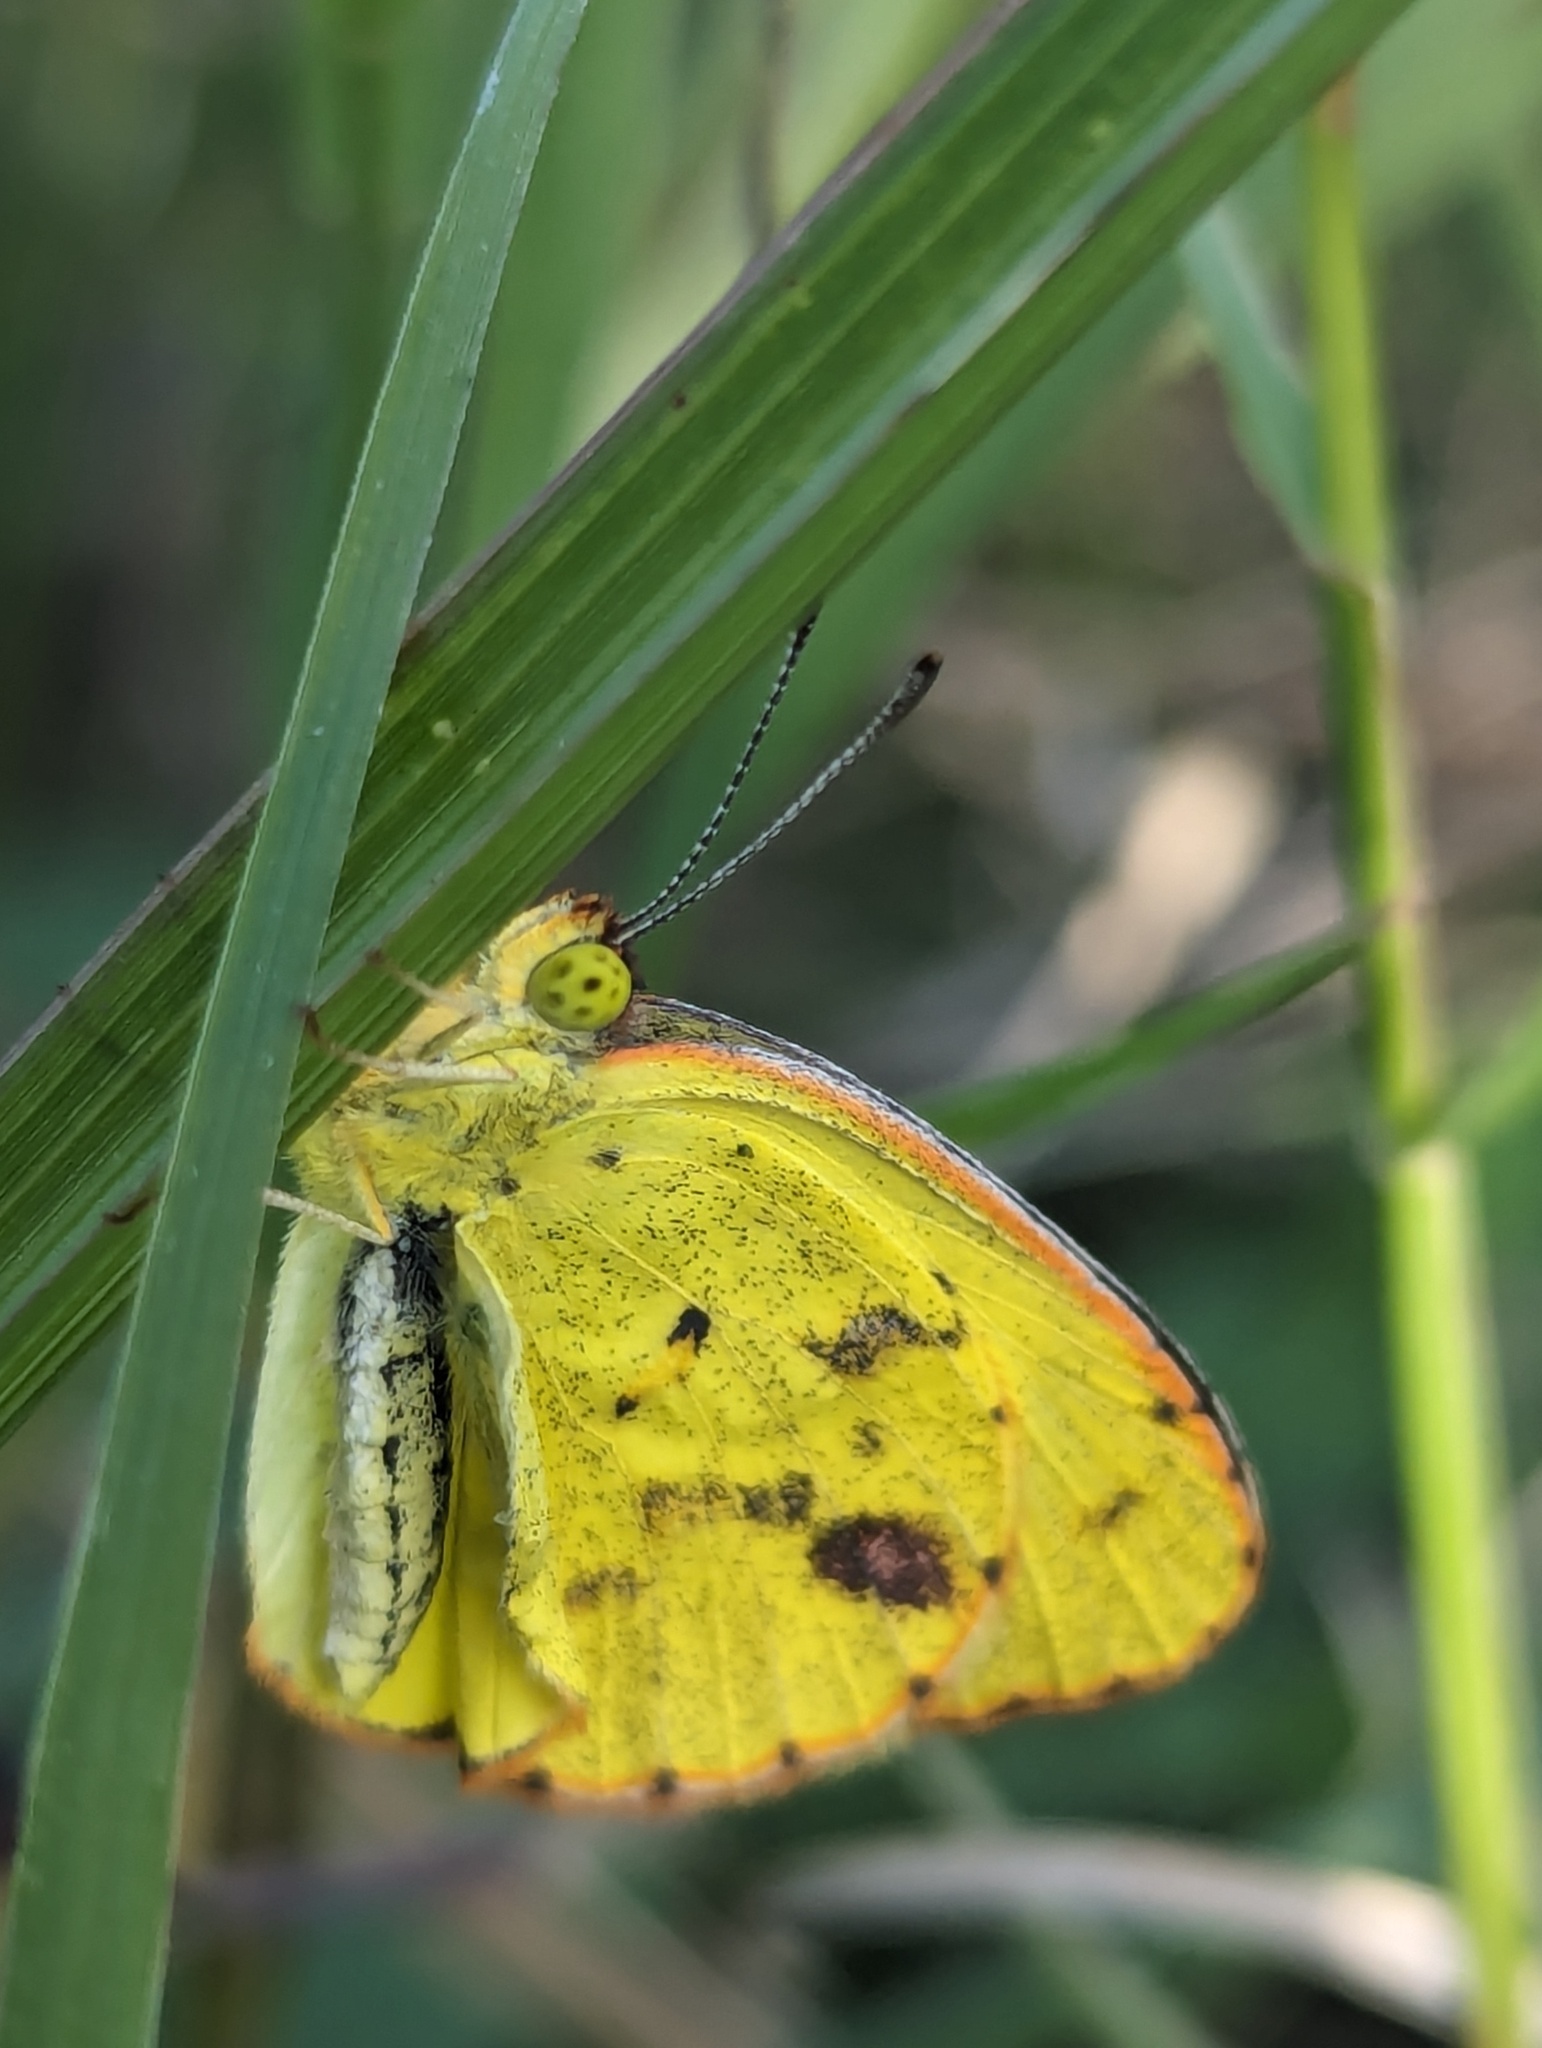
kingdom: Animalia
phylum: Arthropoda
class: Insecta
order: Lepidoptera
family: Pieridae
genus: Pyrisitia
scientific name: Pyrisitia lisa
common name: Little yellow
